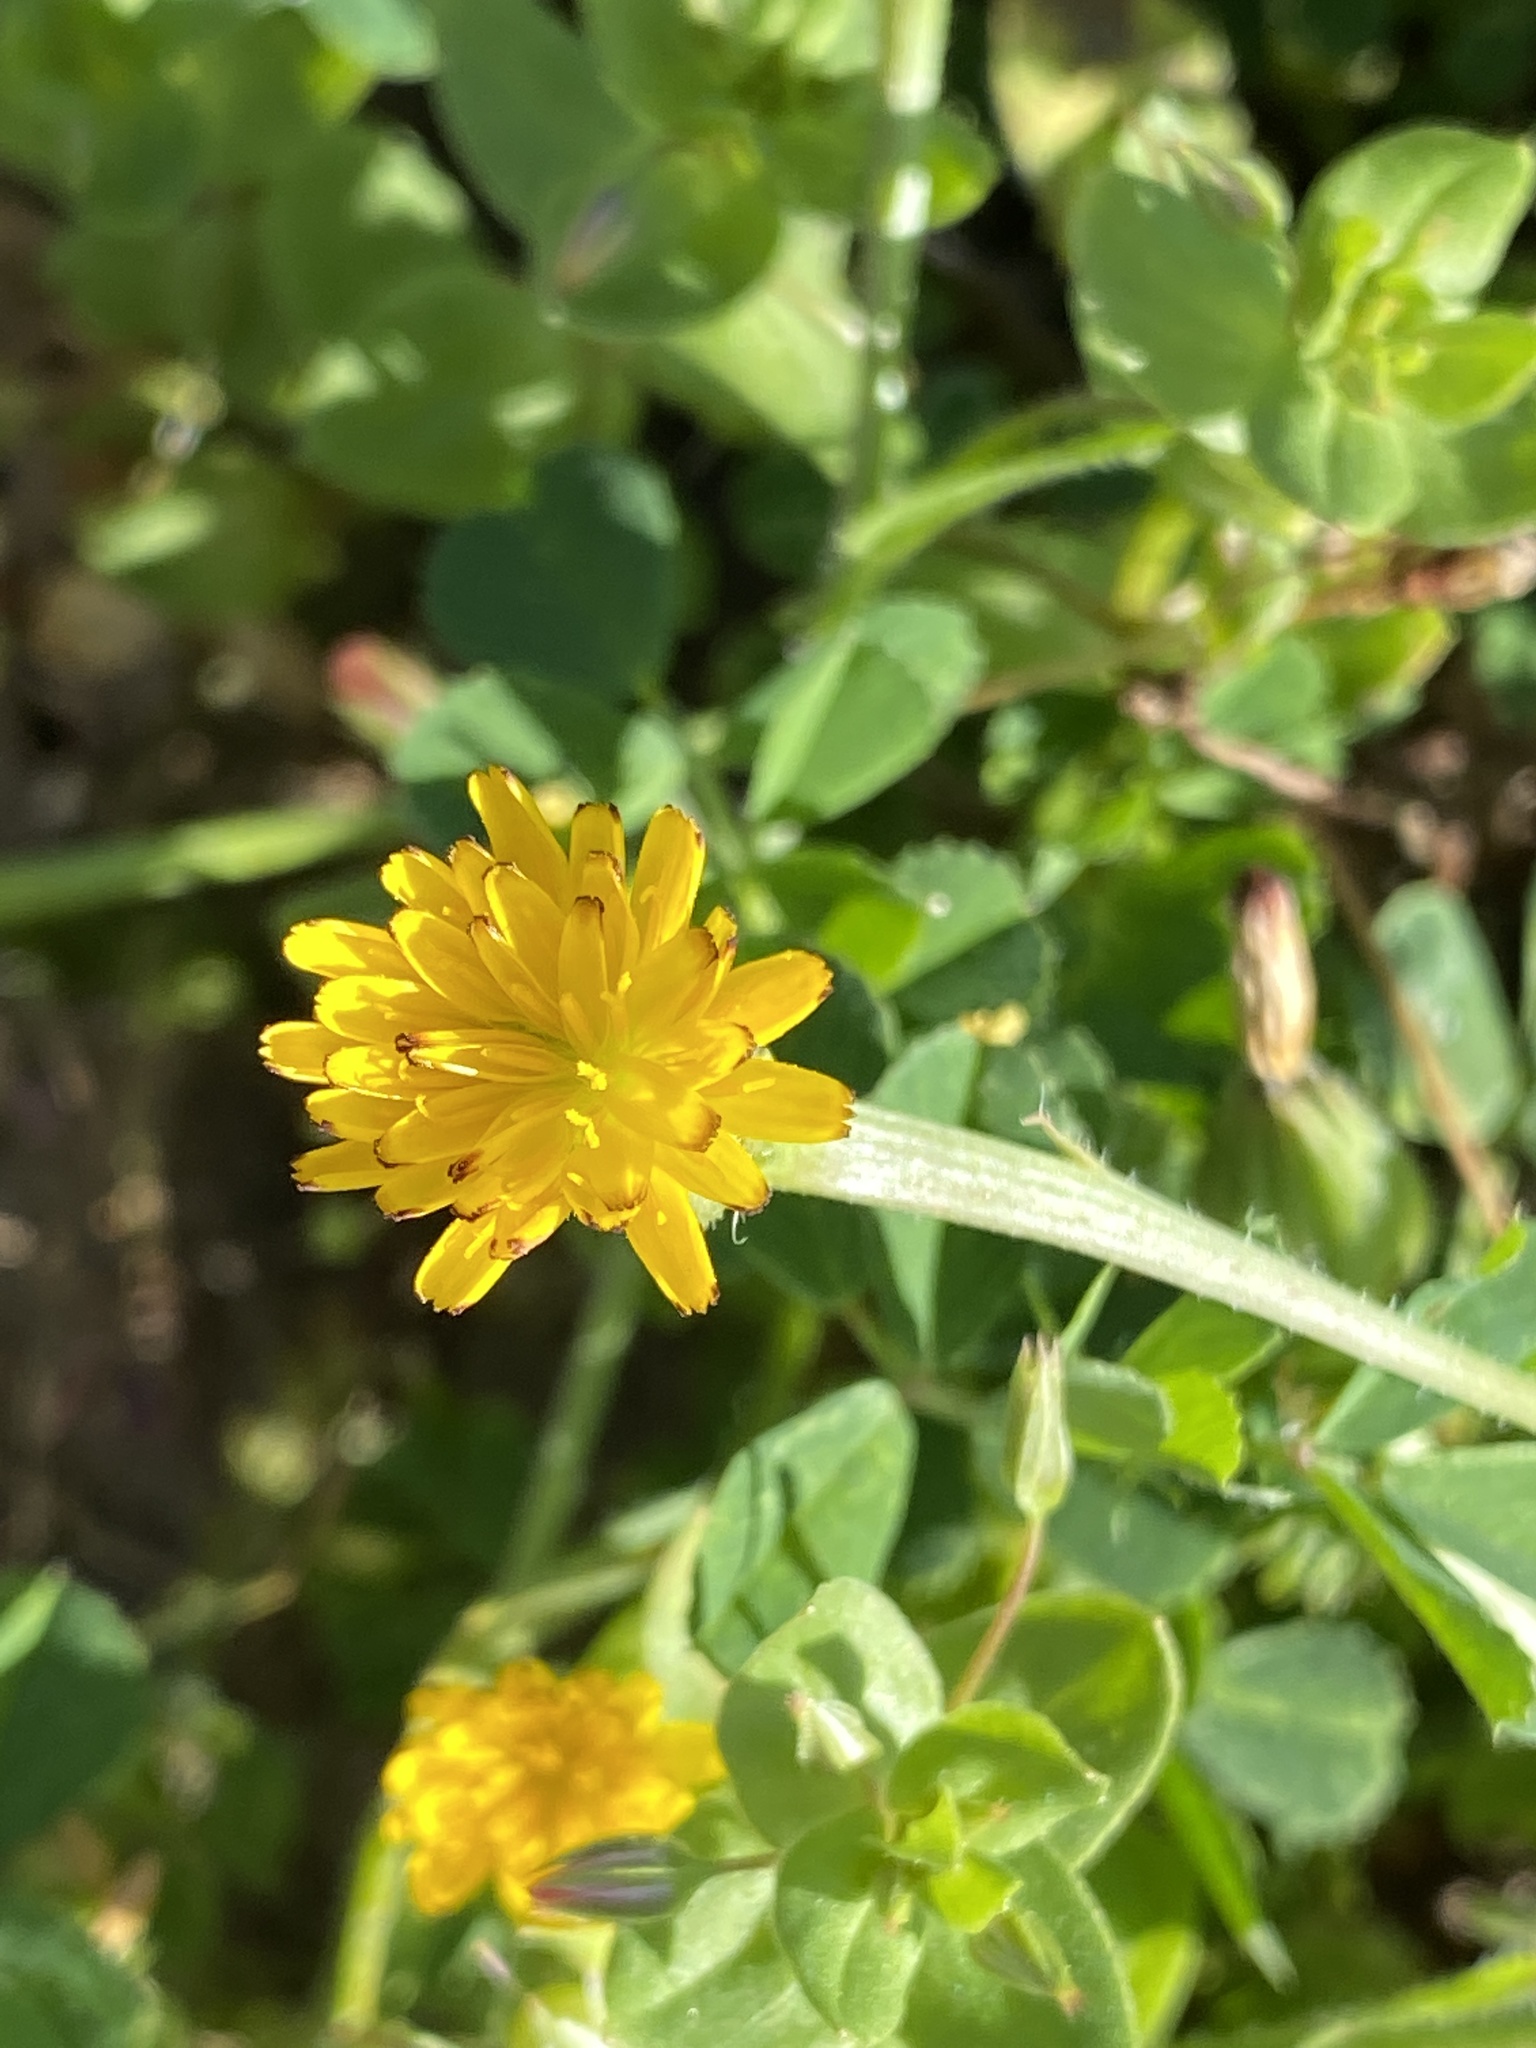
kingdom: Plantae
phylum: Tracheophyta
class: Magnoliopsida
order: Asterales
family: Asteraceae
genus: Hedypnois
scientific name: Hedypnois rhagadioloides
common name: Cretan weed
